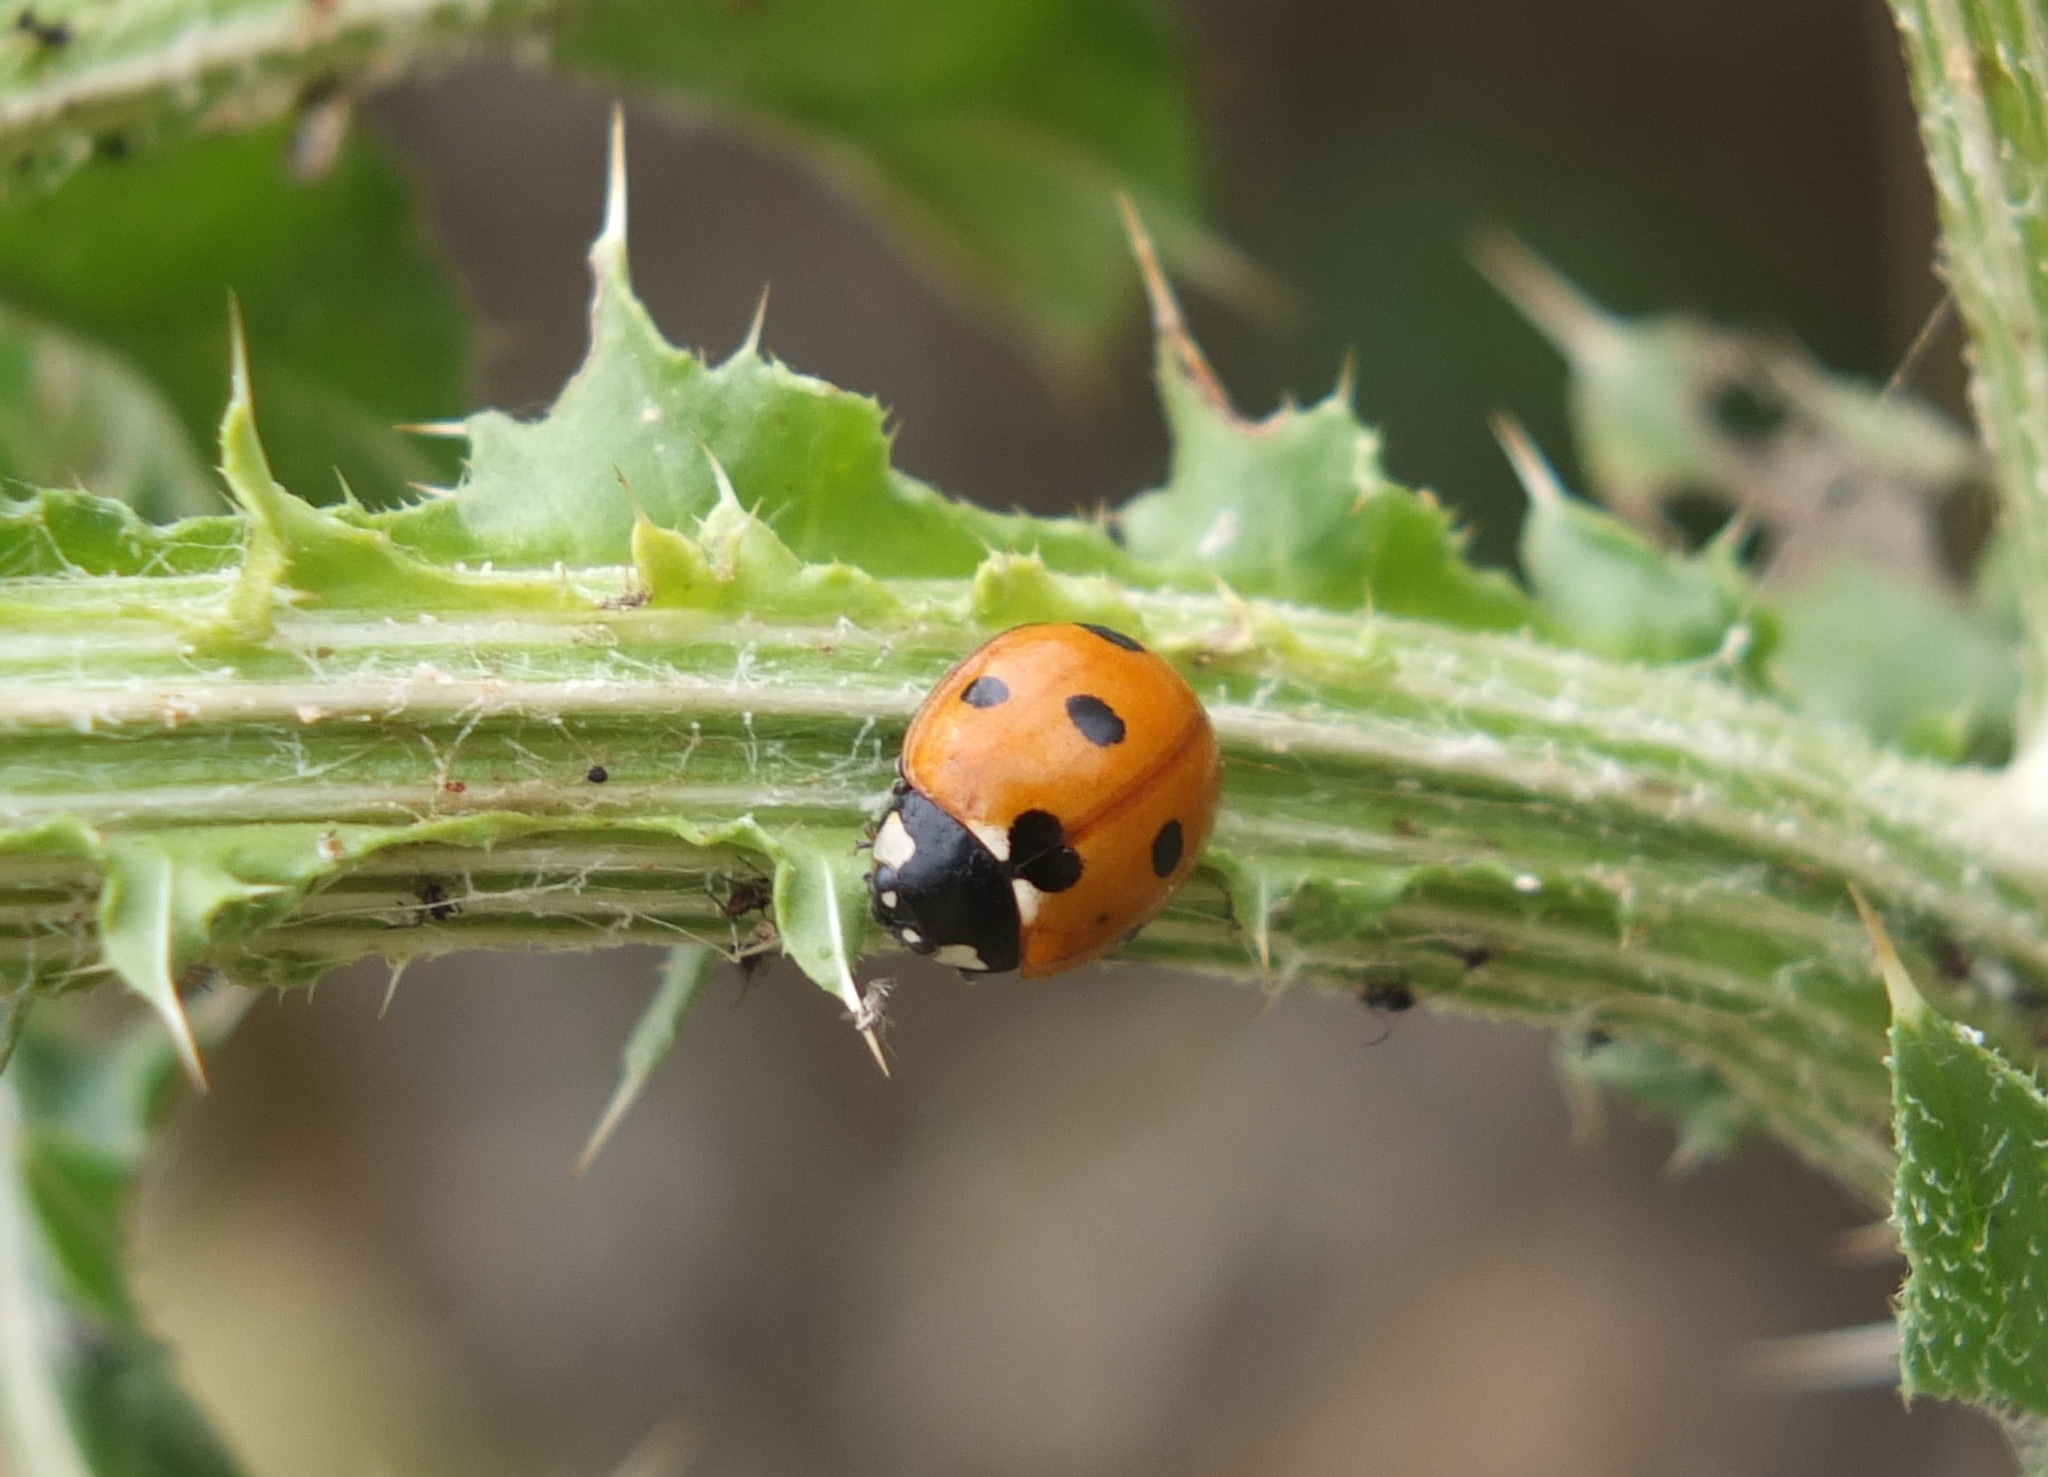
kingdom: Animalia
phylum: Arthropoda
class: Insecta
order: Coleoptera
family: Coccinellidae
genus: Coccinella
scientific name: Coccinella algerica
